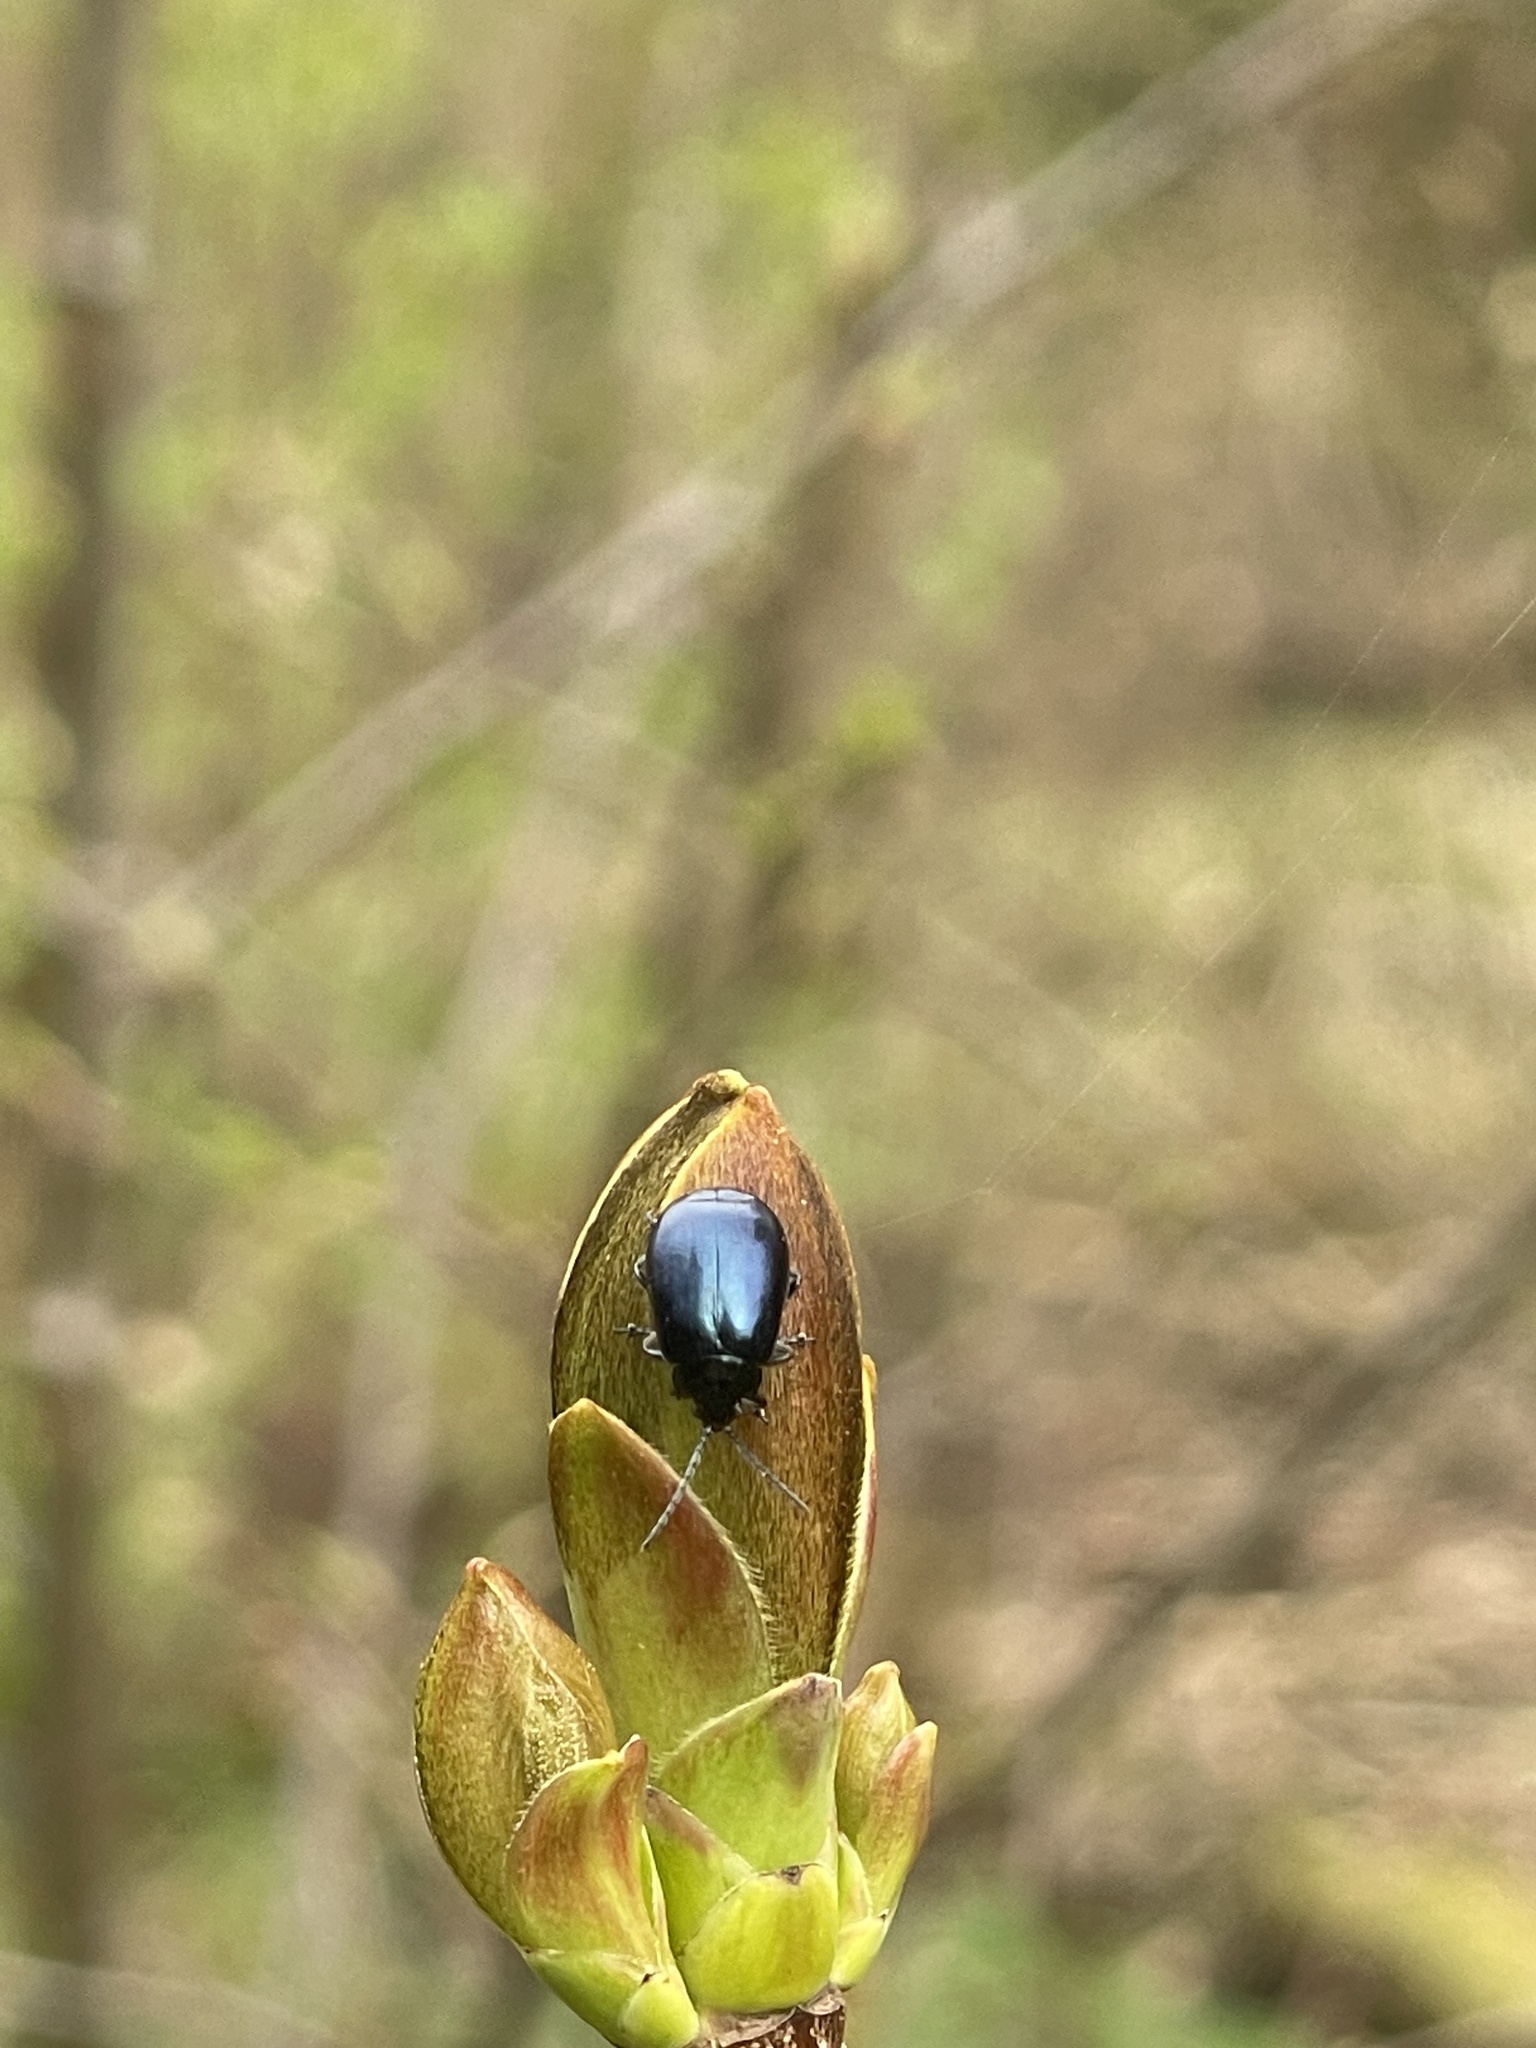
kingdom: Animalia
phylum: Arthropoda
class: Insecta
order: Coleoptera
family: Chrysomelidae
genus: Agelastica
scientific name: Agelastica alni
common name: Alder leaf beetle
